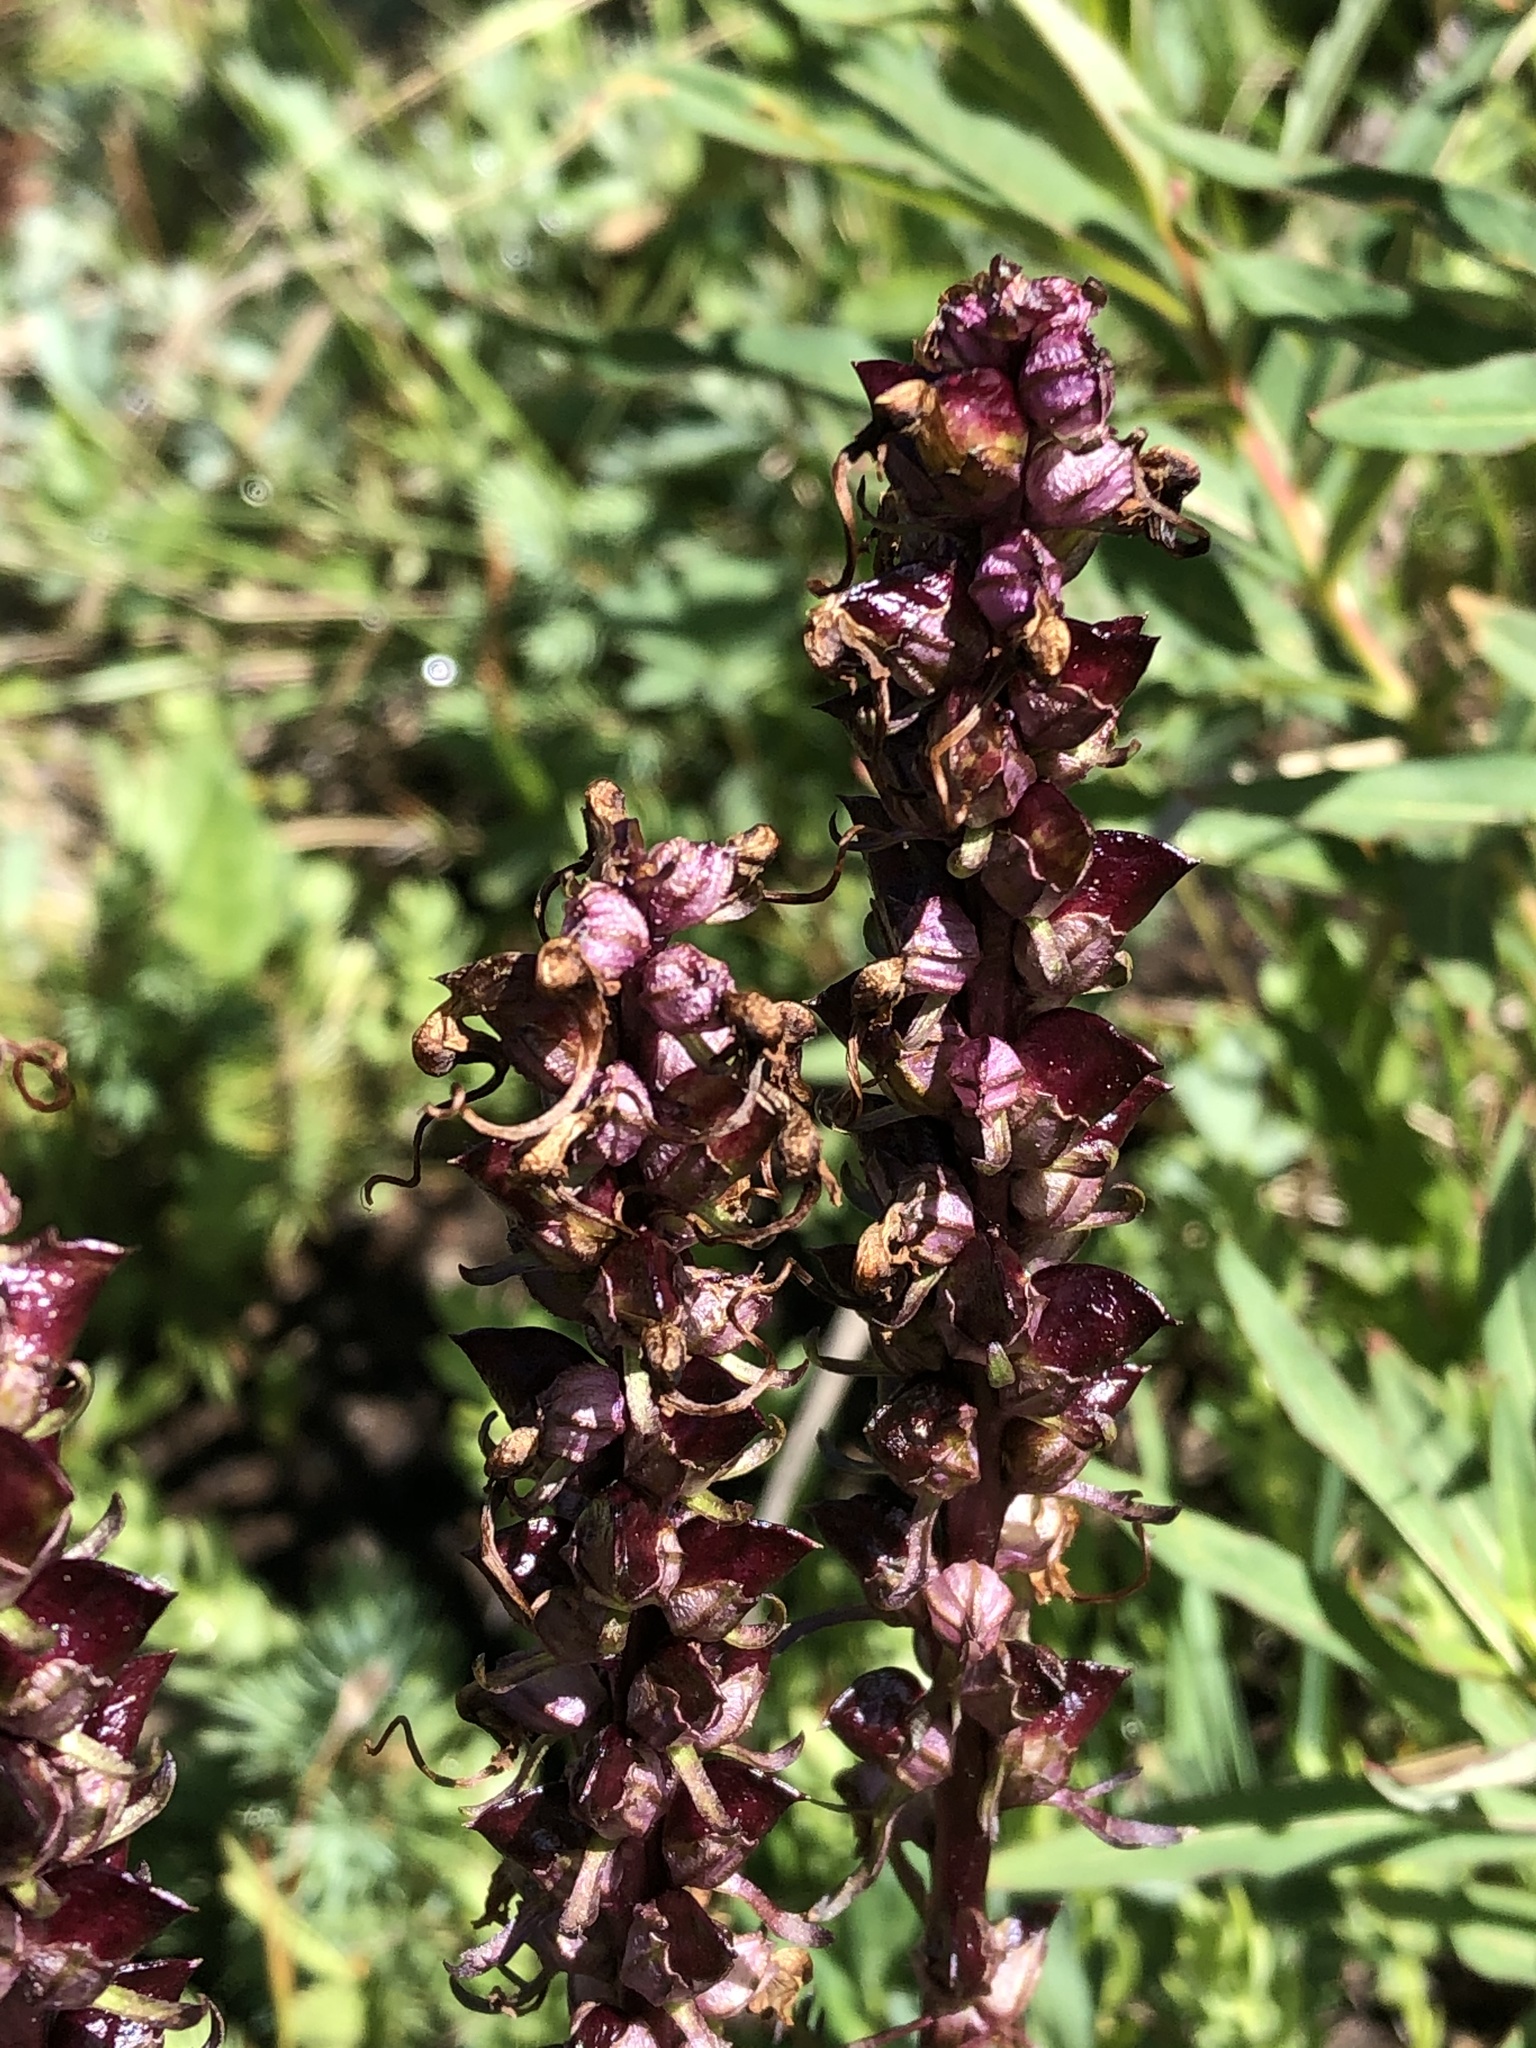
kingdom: Plantae
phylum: Tracheophyta
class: Magnoliopsida
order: Lamiales
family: Orobanchaceae
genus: Pedicularis
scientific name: Pedicularis groenlandica
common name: Elephant's-head
